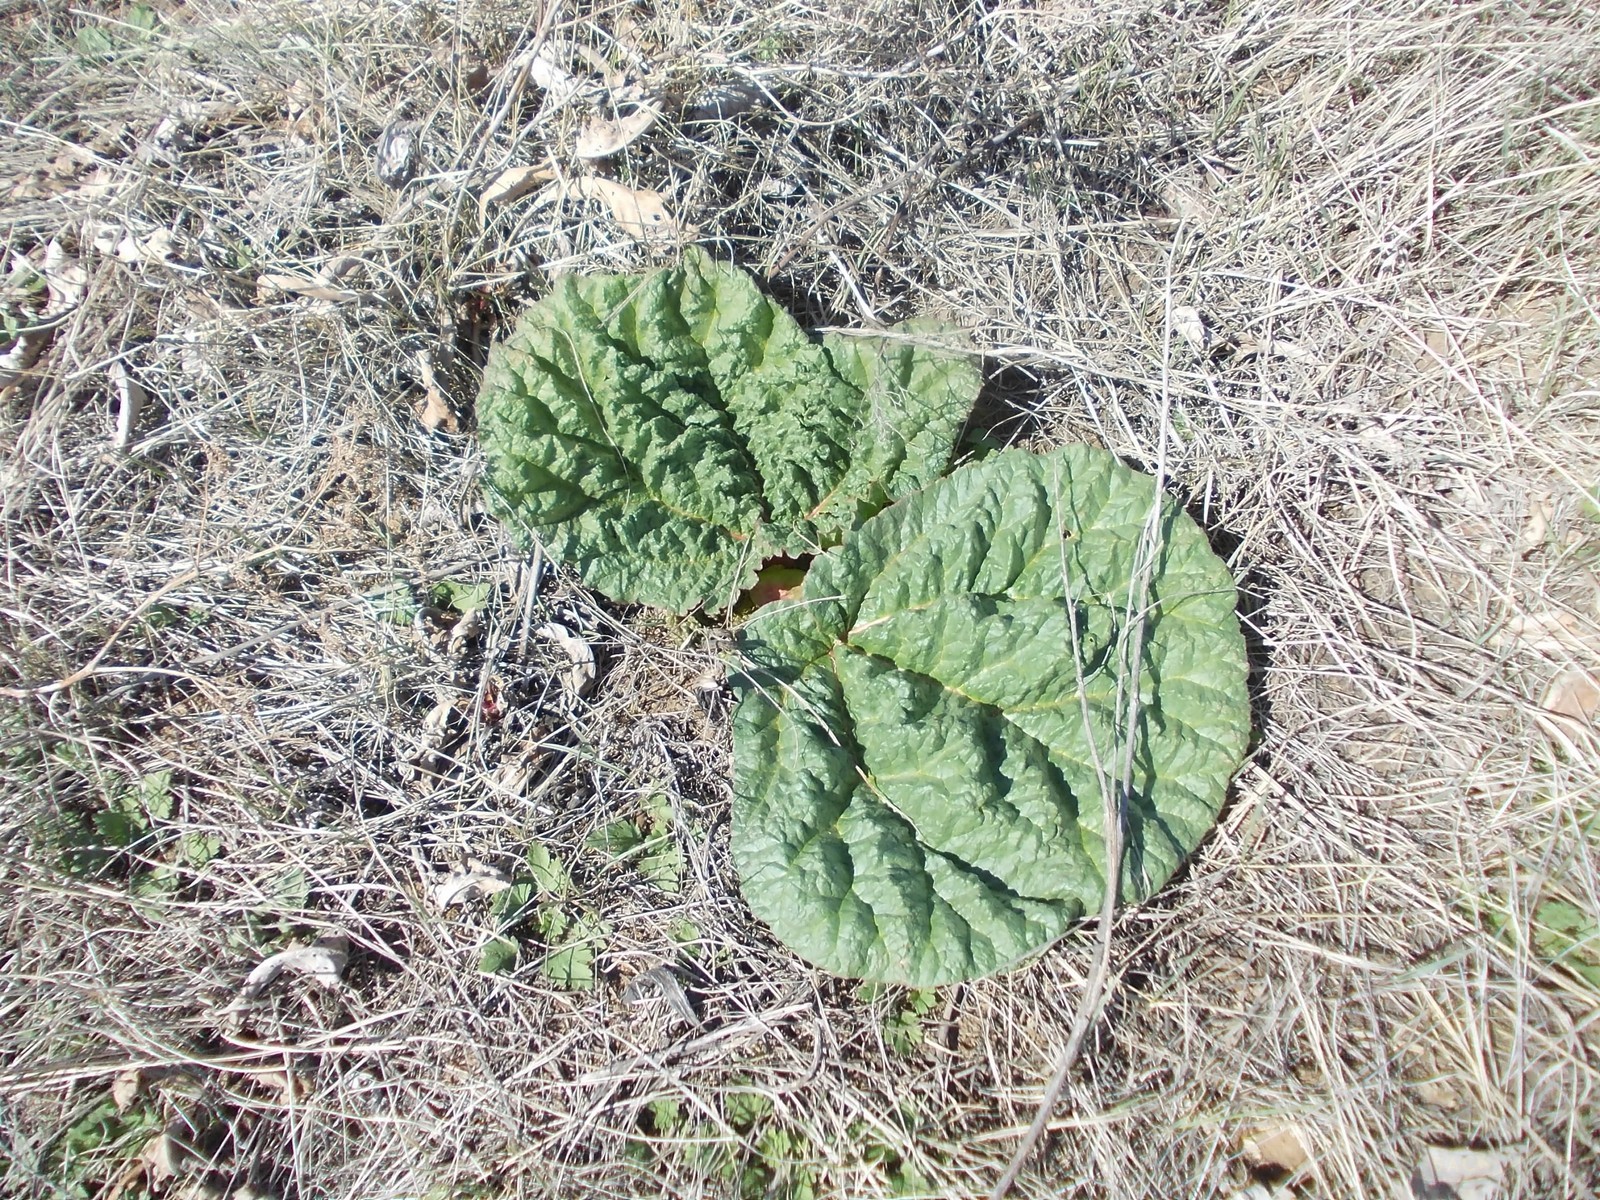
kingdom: Plantae
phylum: Tracheophyta
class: Magnoliopsida
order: Caryophyllales
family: Polygonaceae
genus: Rheum
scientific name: Rheum tataricum
